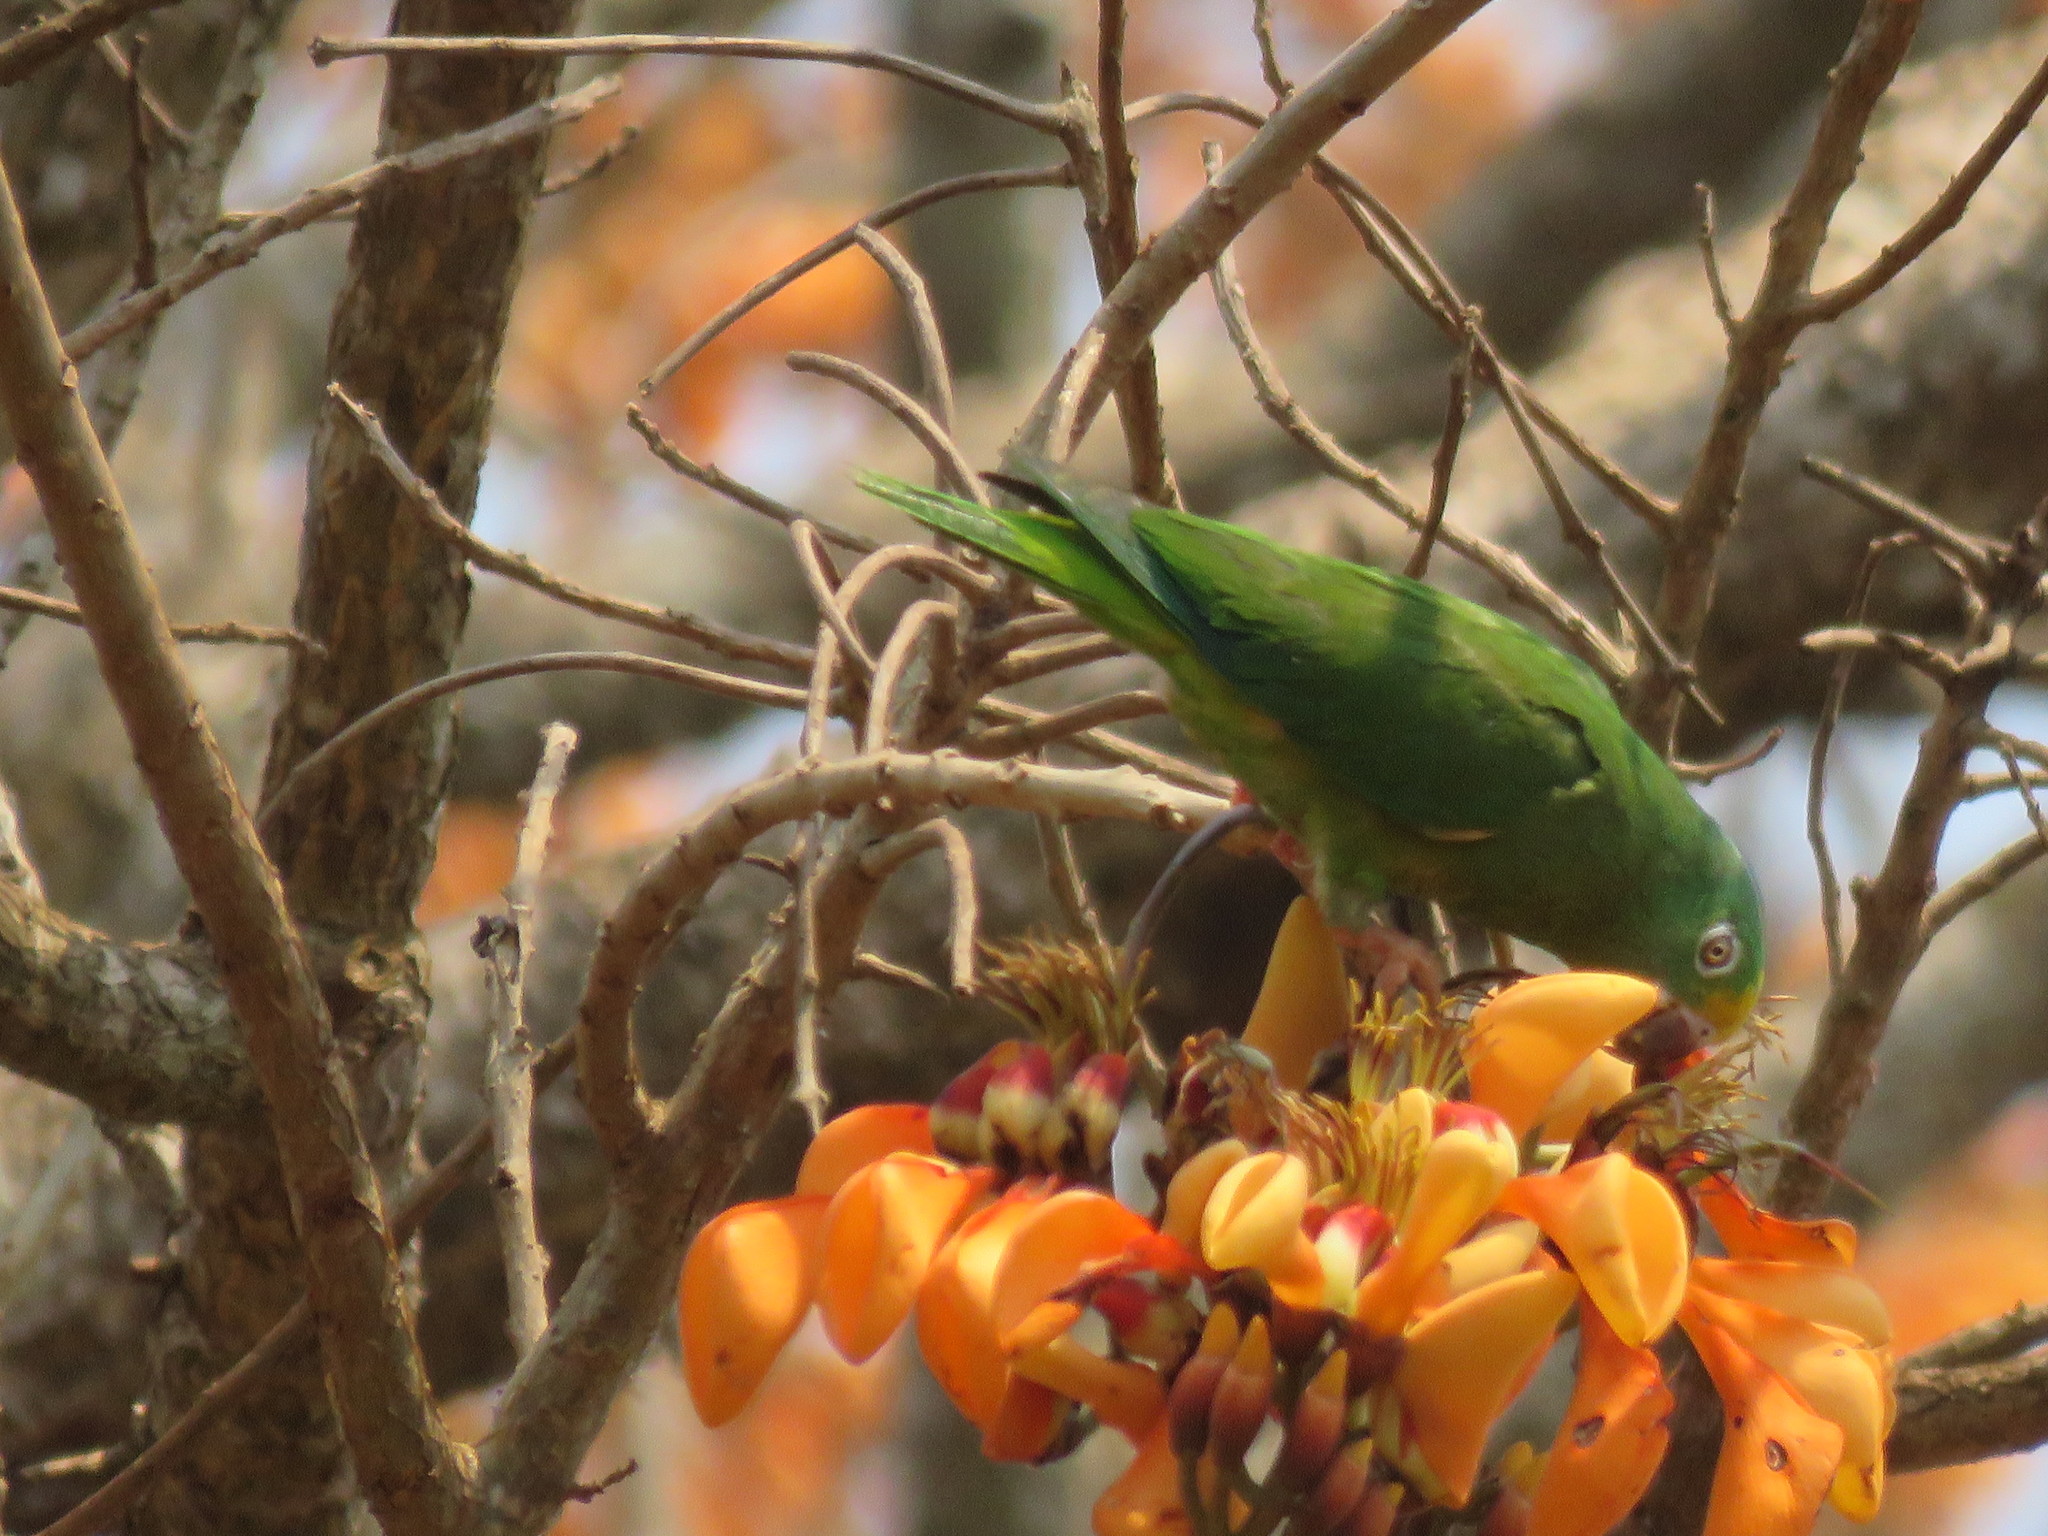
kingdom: Animalia
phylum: Chordata
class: Aves
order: Psittaciformes
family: Psittacidae
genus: Brotogeris
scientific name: Brotogeris sanctithomae
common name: Tui parakeet
